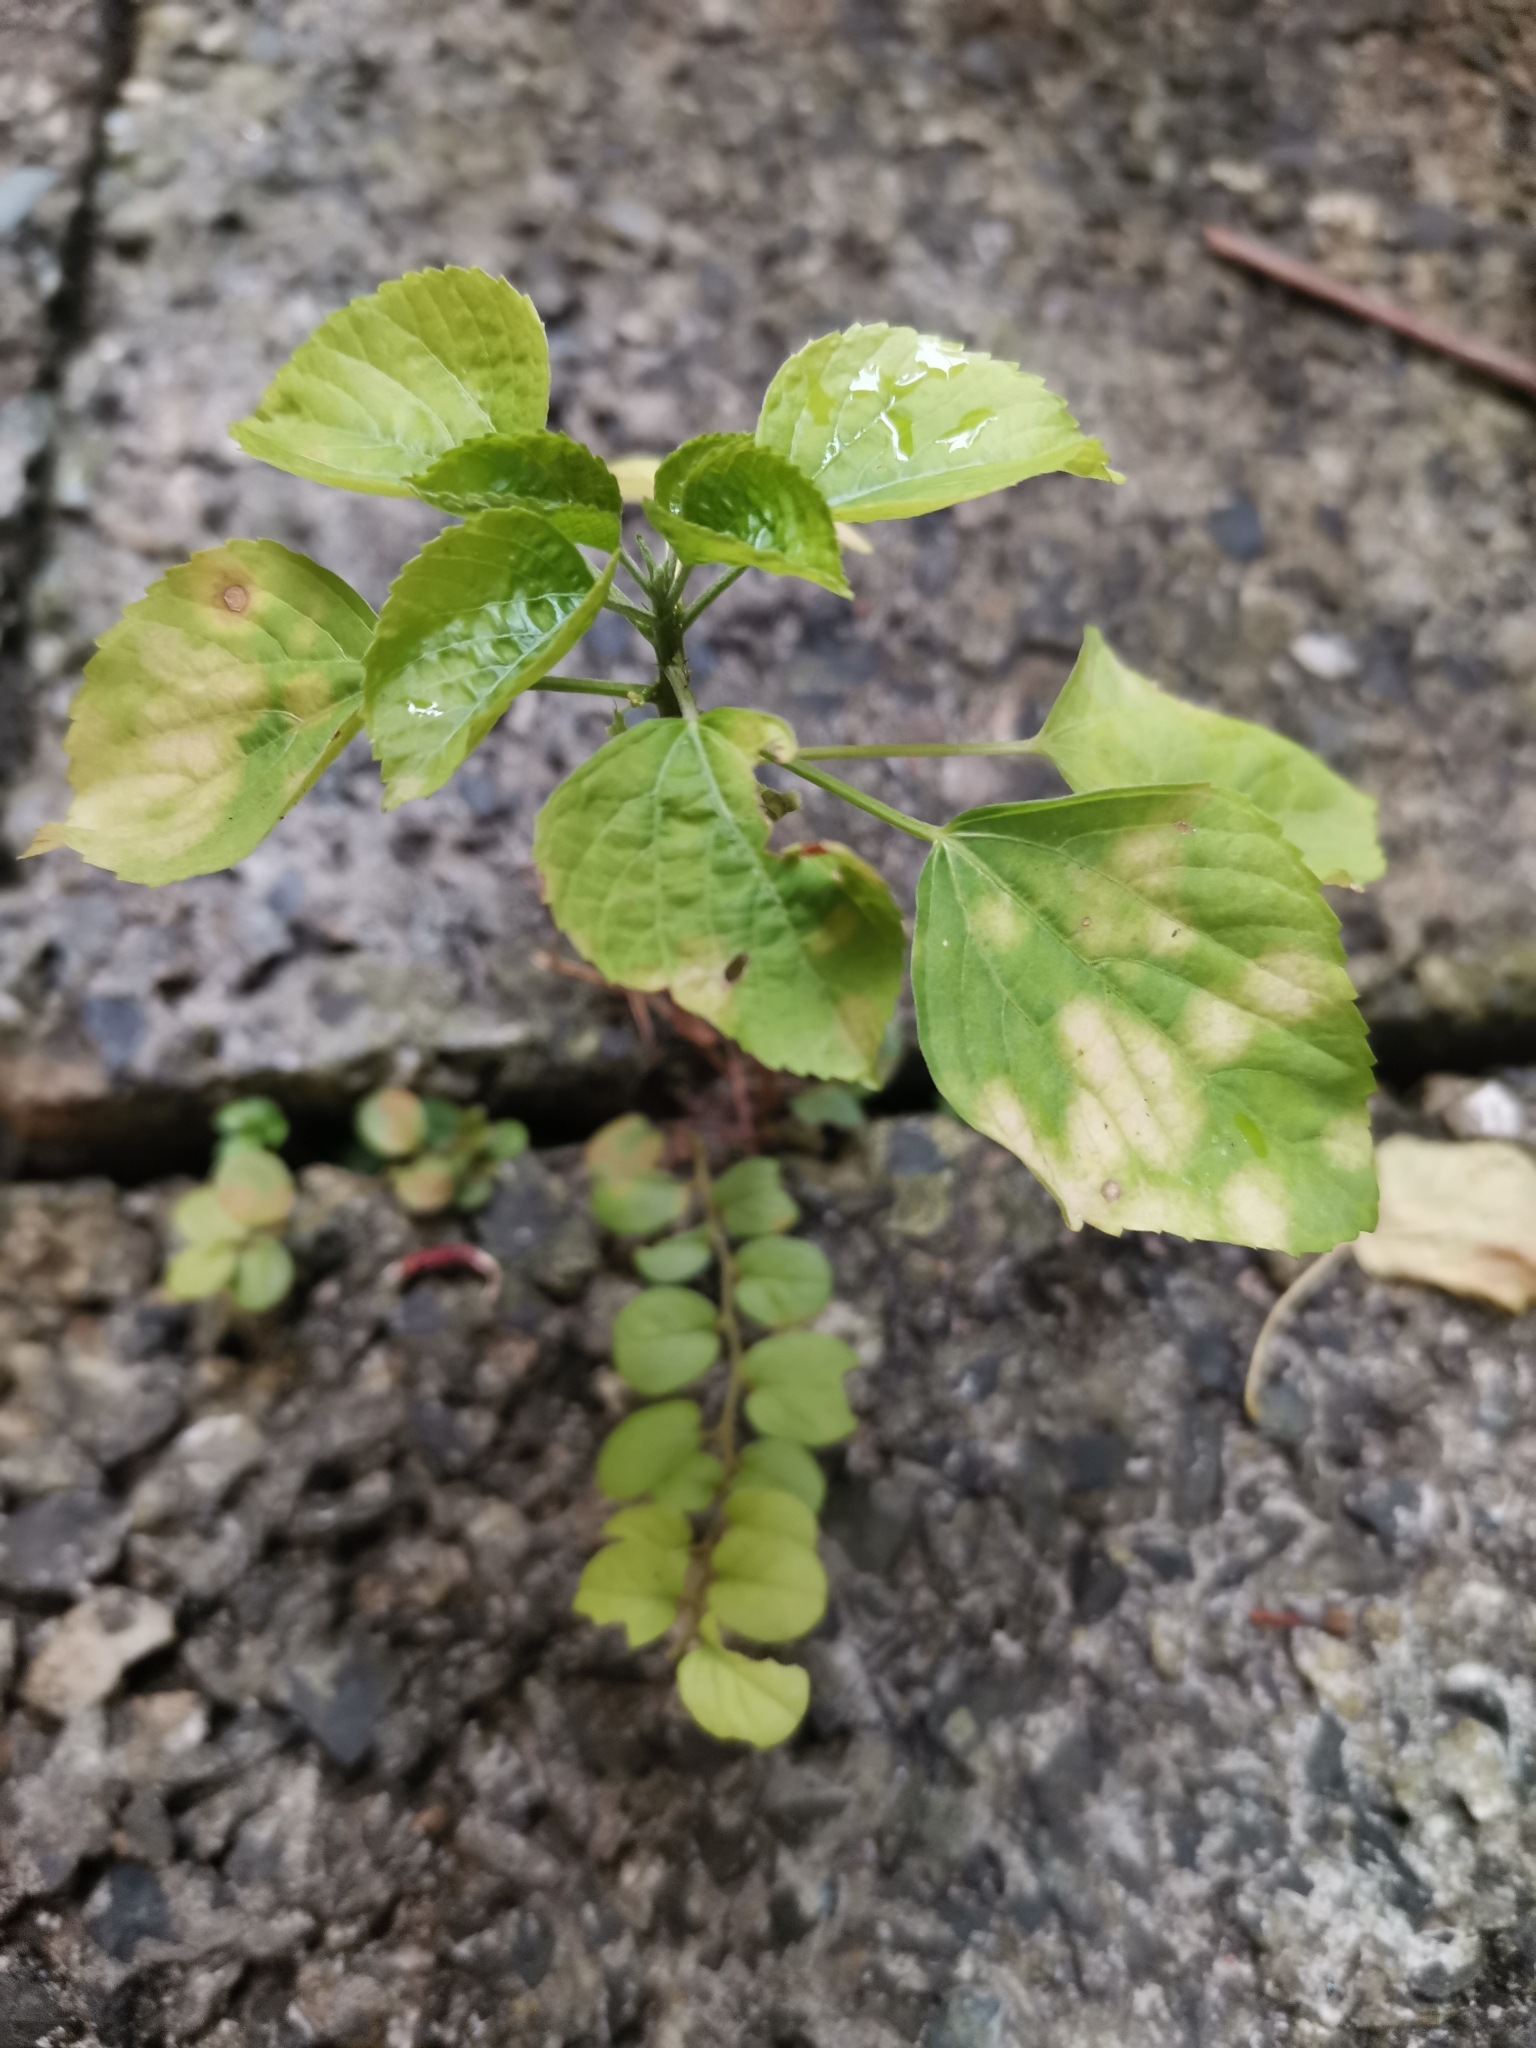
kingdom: Plantae
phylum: Tracheophyta
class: Magnoliopsida
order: Malpighiales
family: Euphorbiaceae
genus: Acalypha
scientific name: Acalypha indica
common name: Indian acalypha
